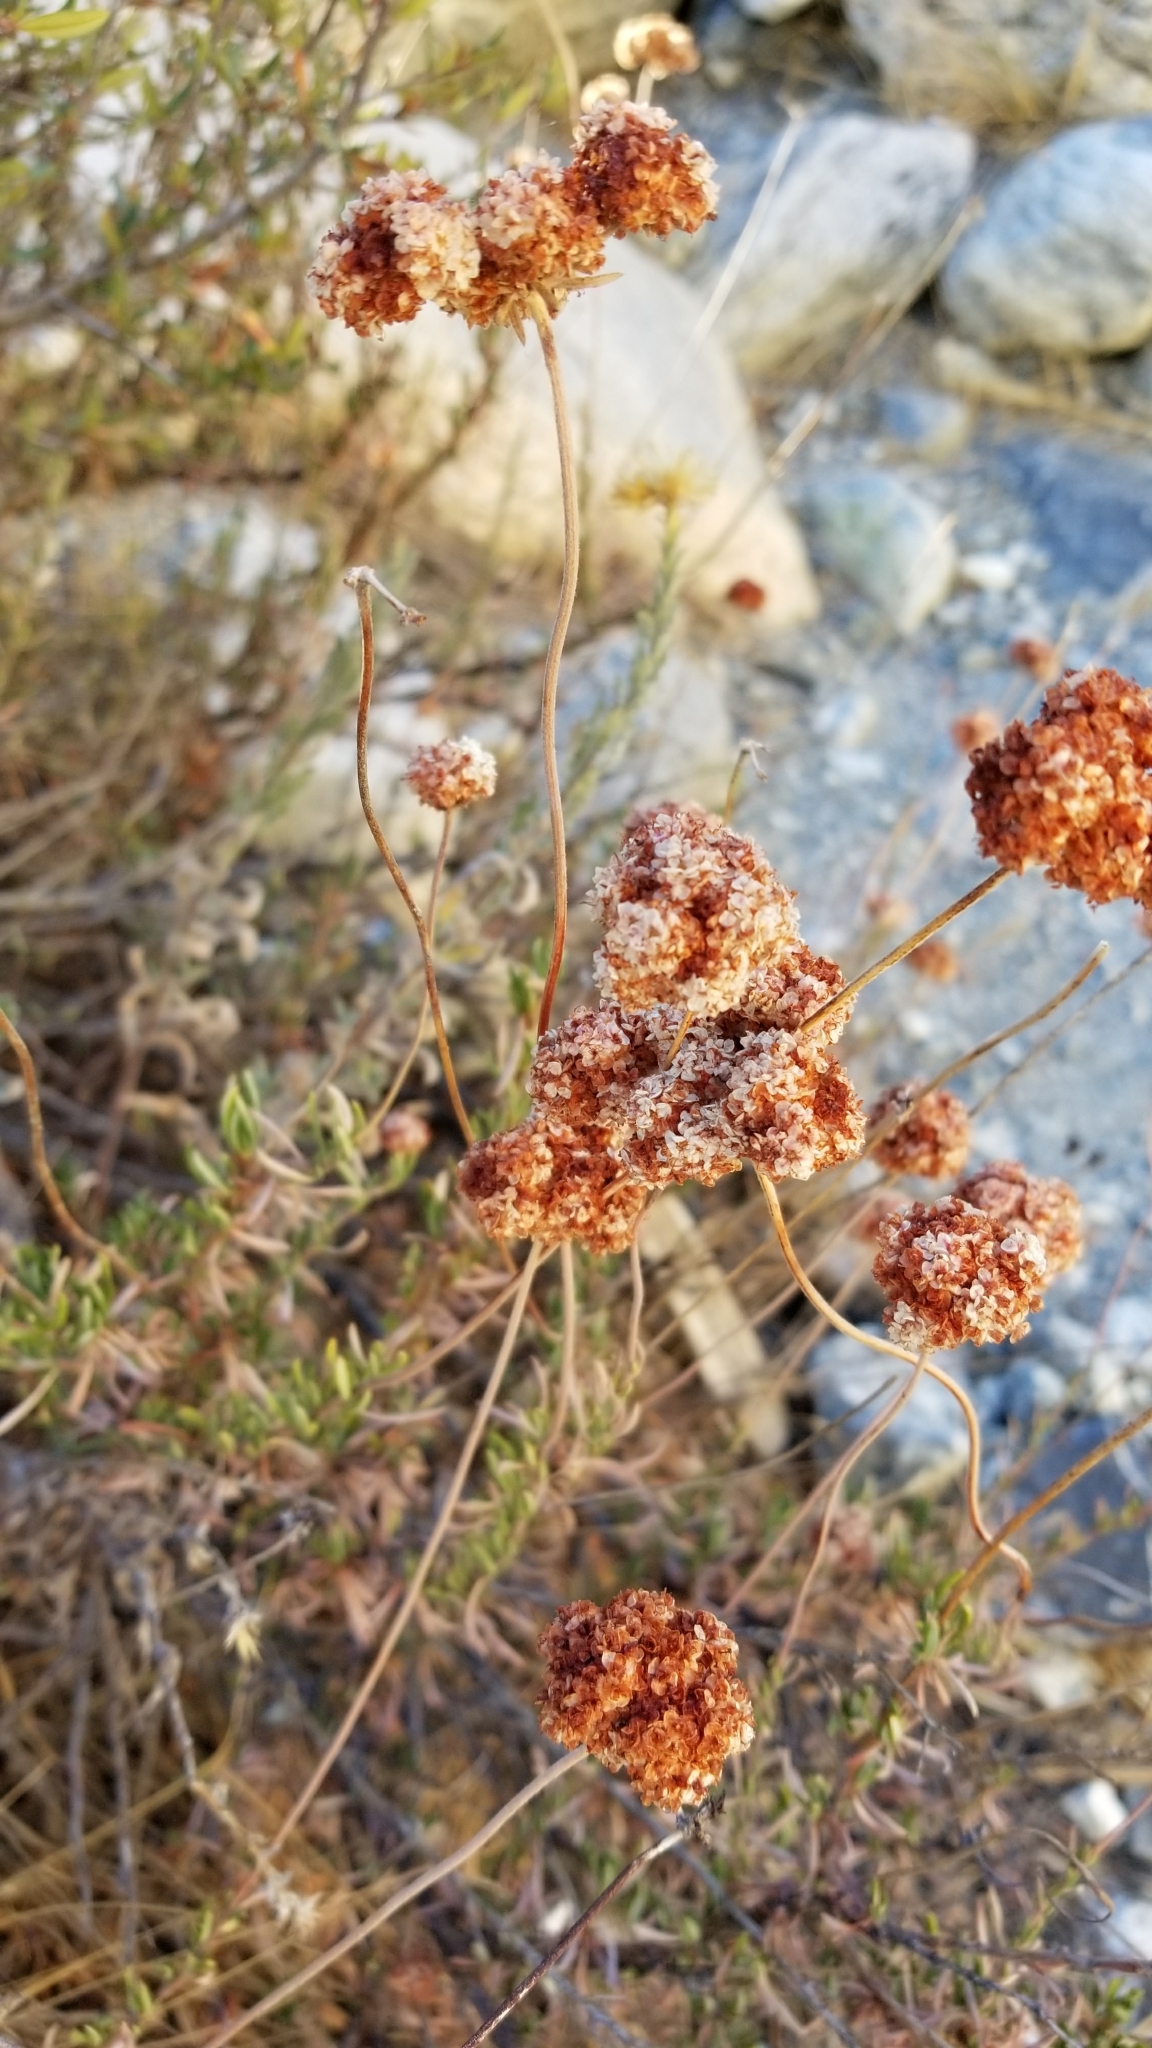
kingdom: Plantae
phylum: Tracheophyta
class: Magnoliopsida
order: Caryophyllales
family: Polygonaceae
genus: Eriogonum
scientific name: Eriogonum fasciculatum
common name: California wild buckwheat
